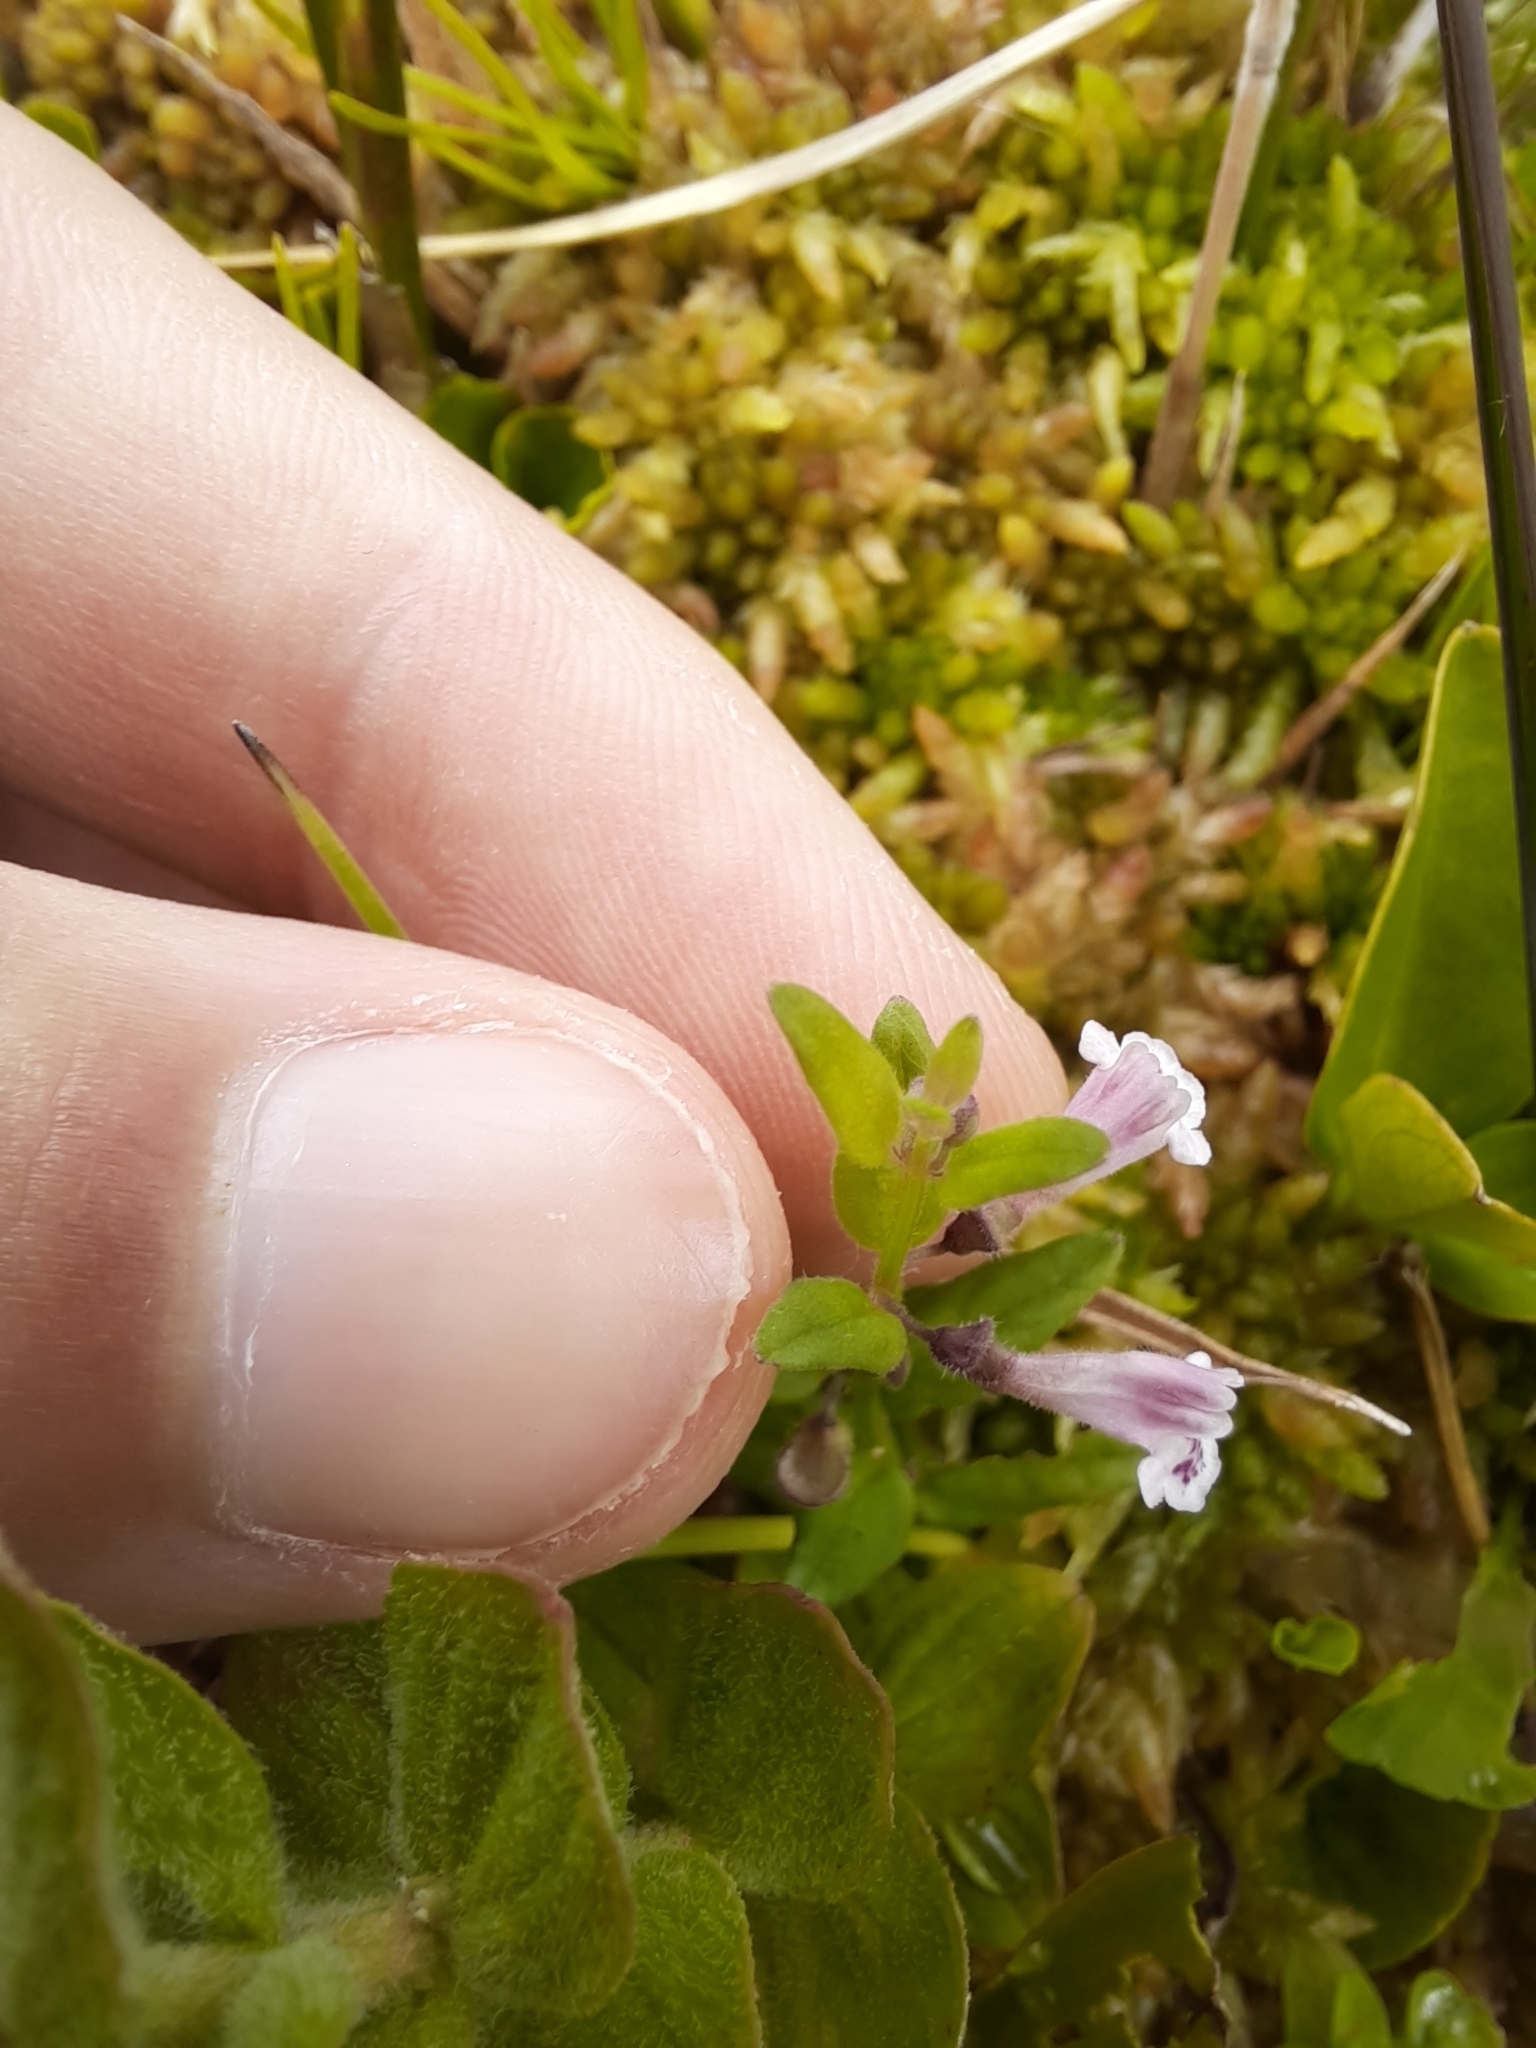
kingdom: Plantae
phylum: Tracheophyta
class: Magnoliopsida
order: Lamiales
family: Lamiaceae
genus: Scutellaria
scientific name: Scutellaria minor
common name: Lesser skullcap
